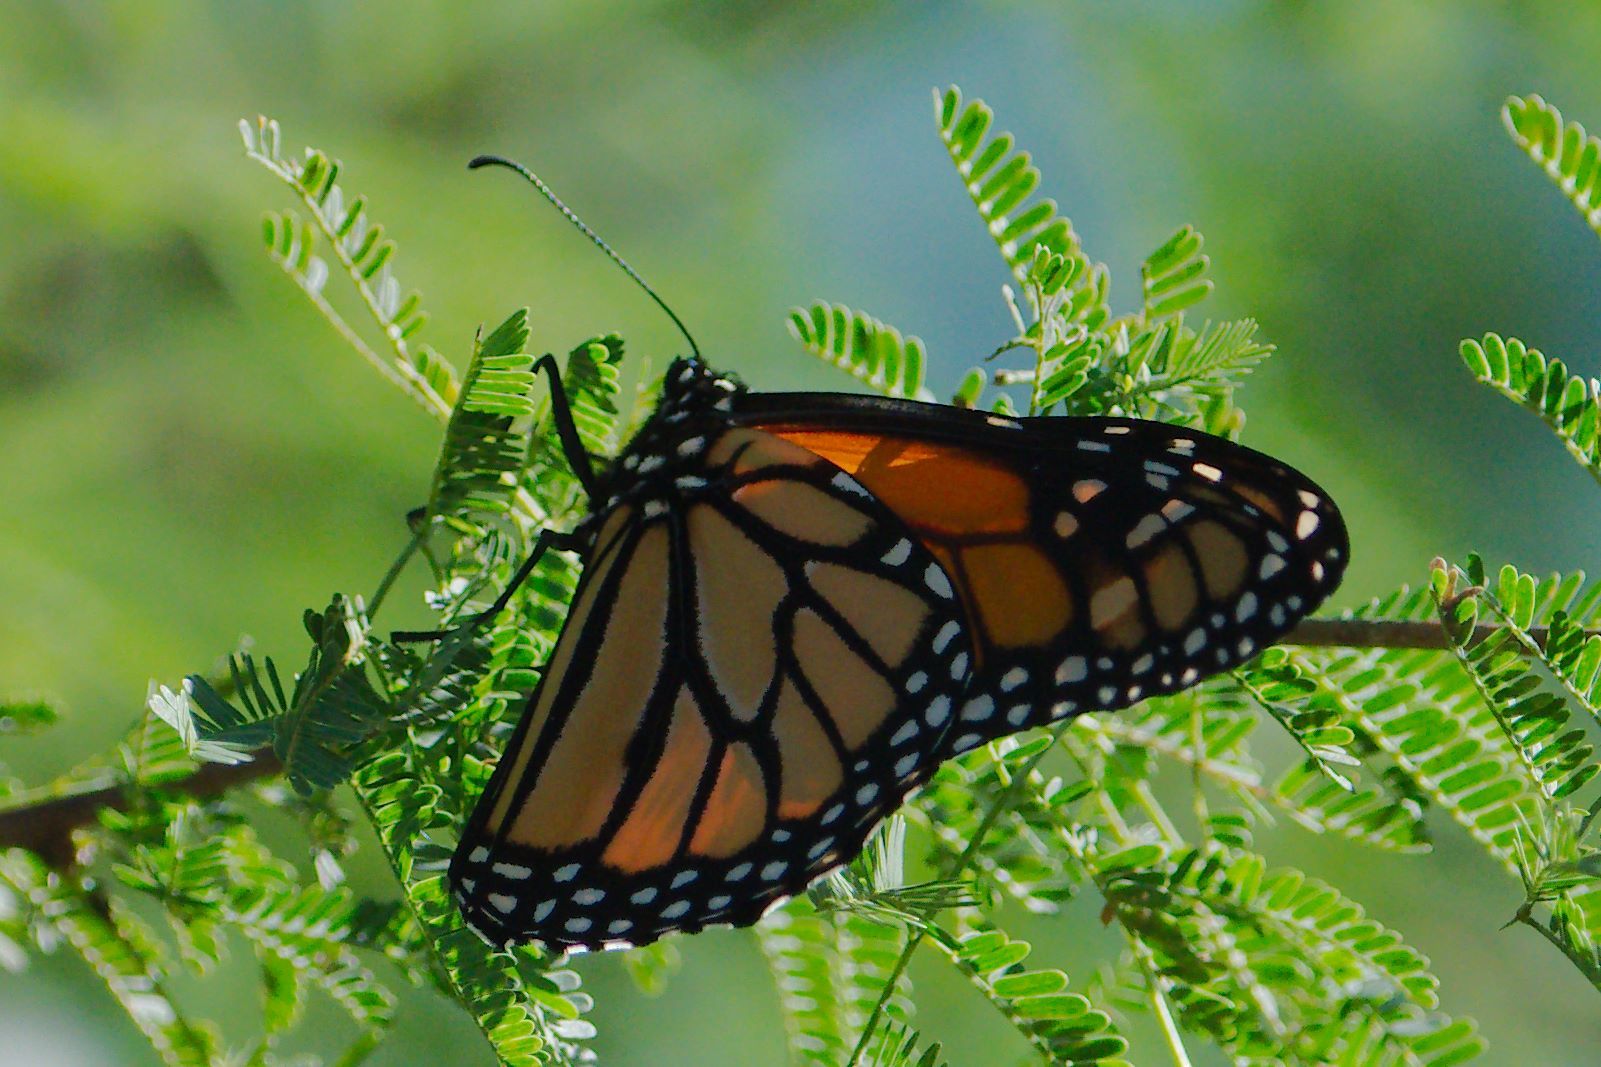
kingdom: Animalia
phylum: Arthropoda
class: Insecta
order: Lepidoptera
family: Nymphalidae
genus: Danaus
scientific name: Danaus plexippus
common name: Monarch
